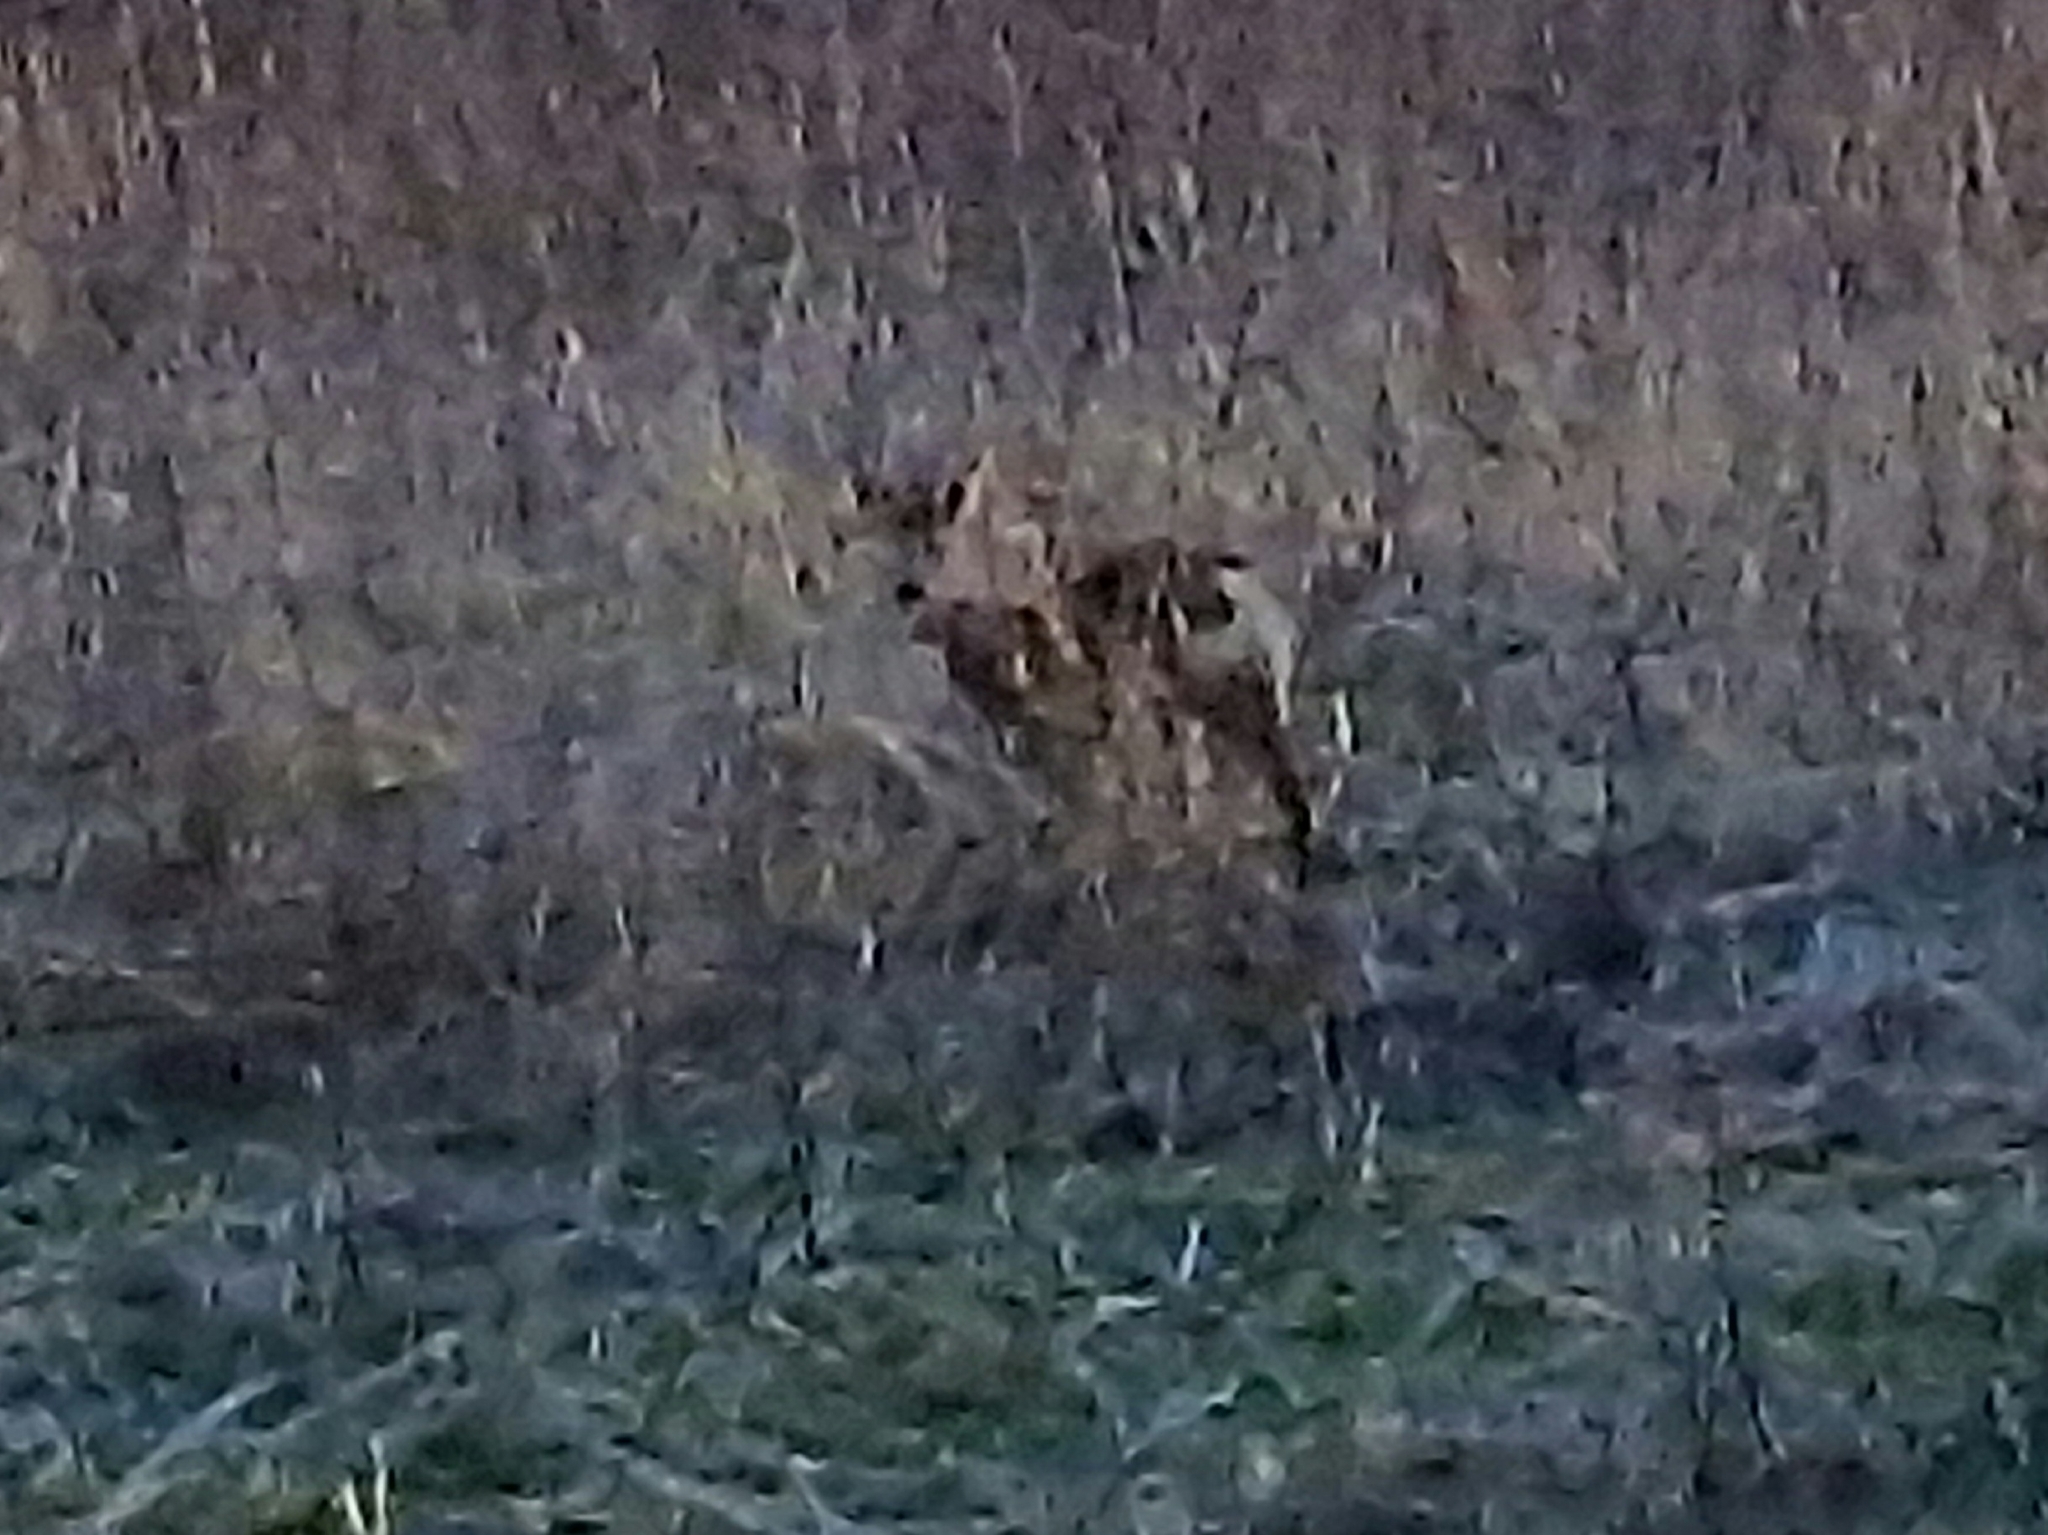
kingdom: Animalia
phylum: Chordata
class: Mammalia
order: Artiodactyla
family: Cervidae
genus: Capreolus
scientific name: Capreolus capreolus
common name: Western roe deer
